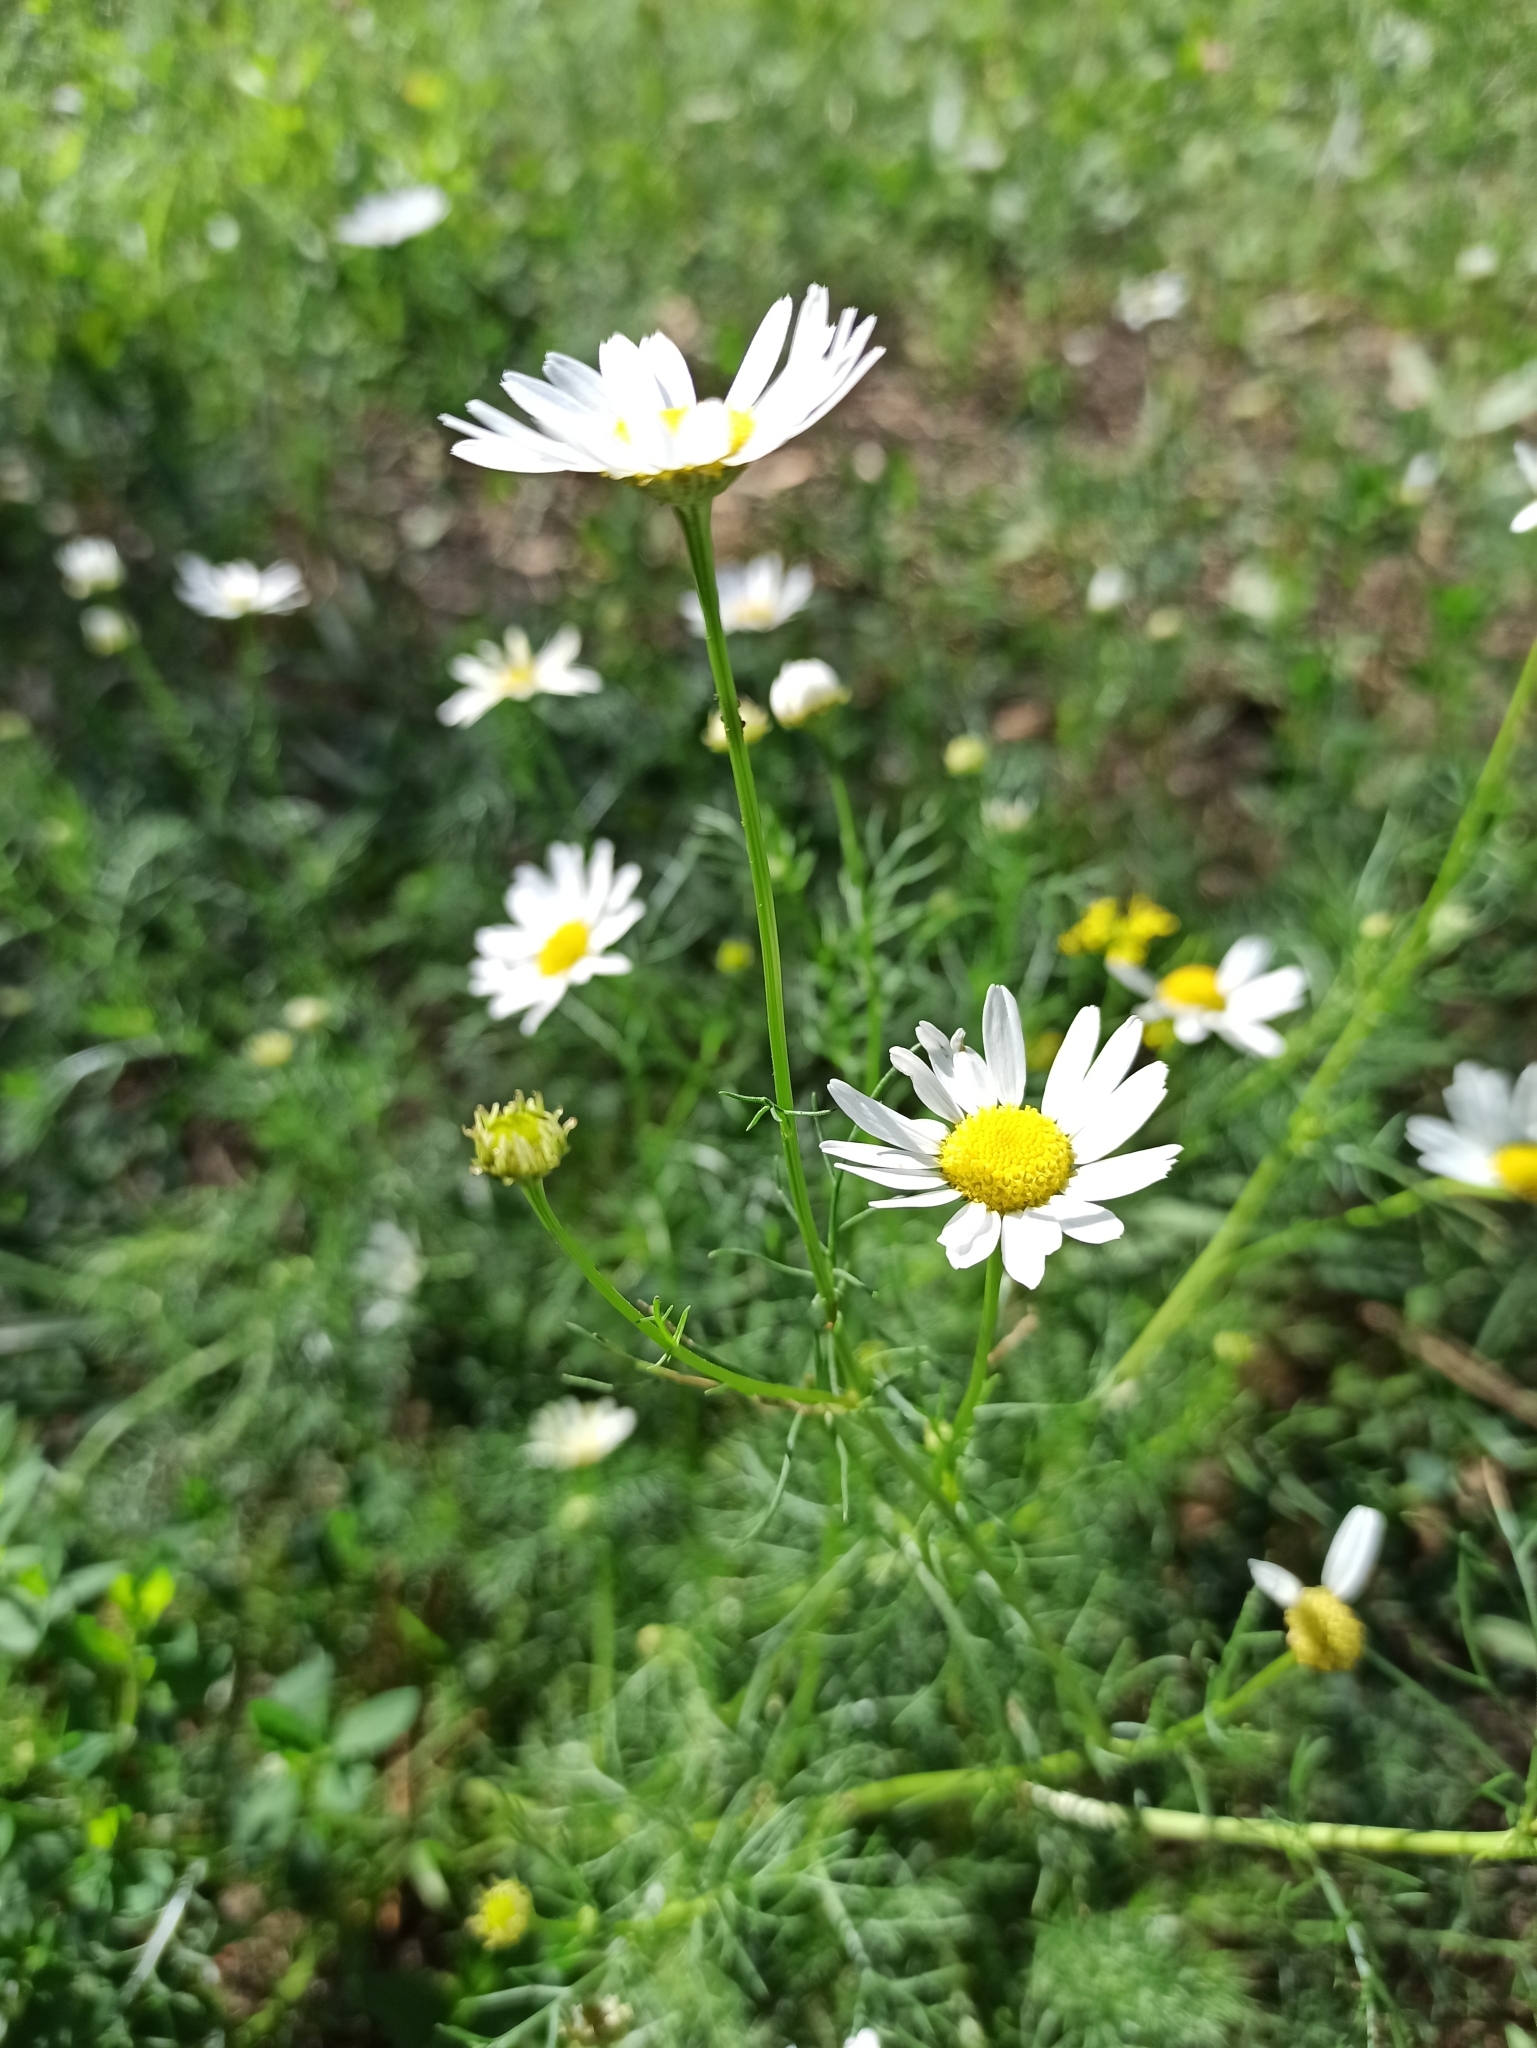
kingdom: Plantae
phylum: Tracheophyta
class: Magnoliopsida
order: Asterales
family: Asteraceae
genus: Tripleurospermum
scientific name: Tripleurospermum inodorum
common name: Scentless mayweed
